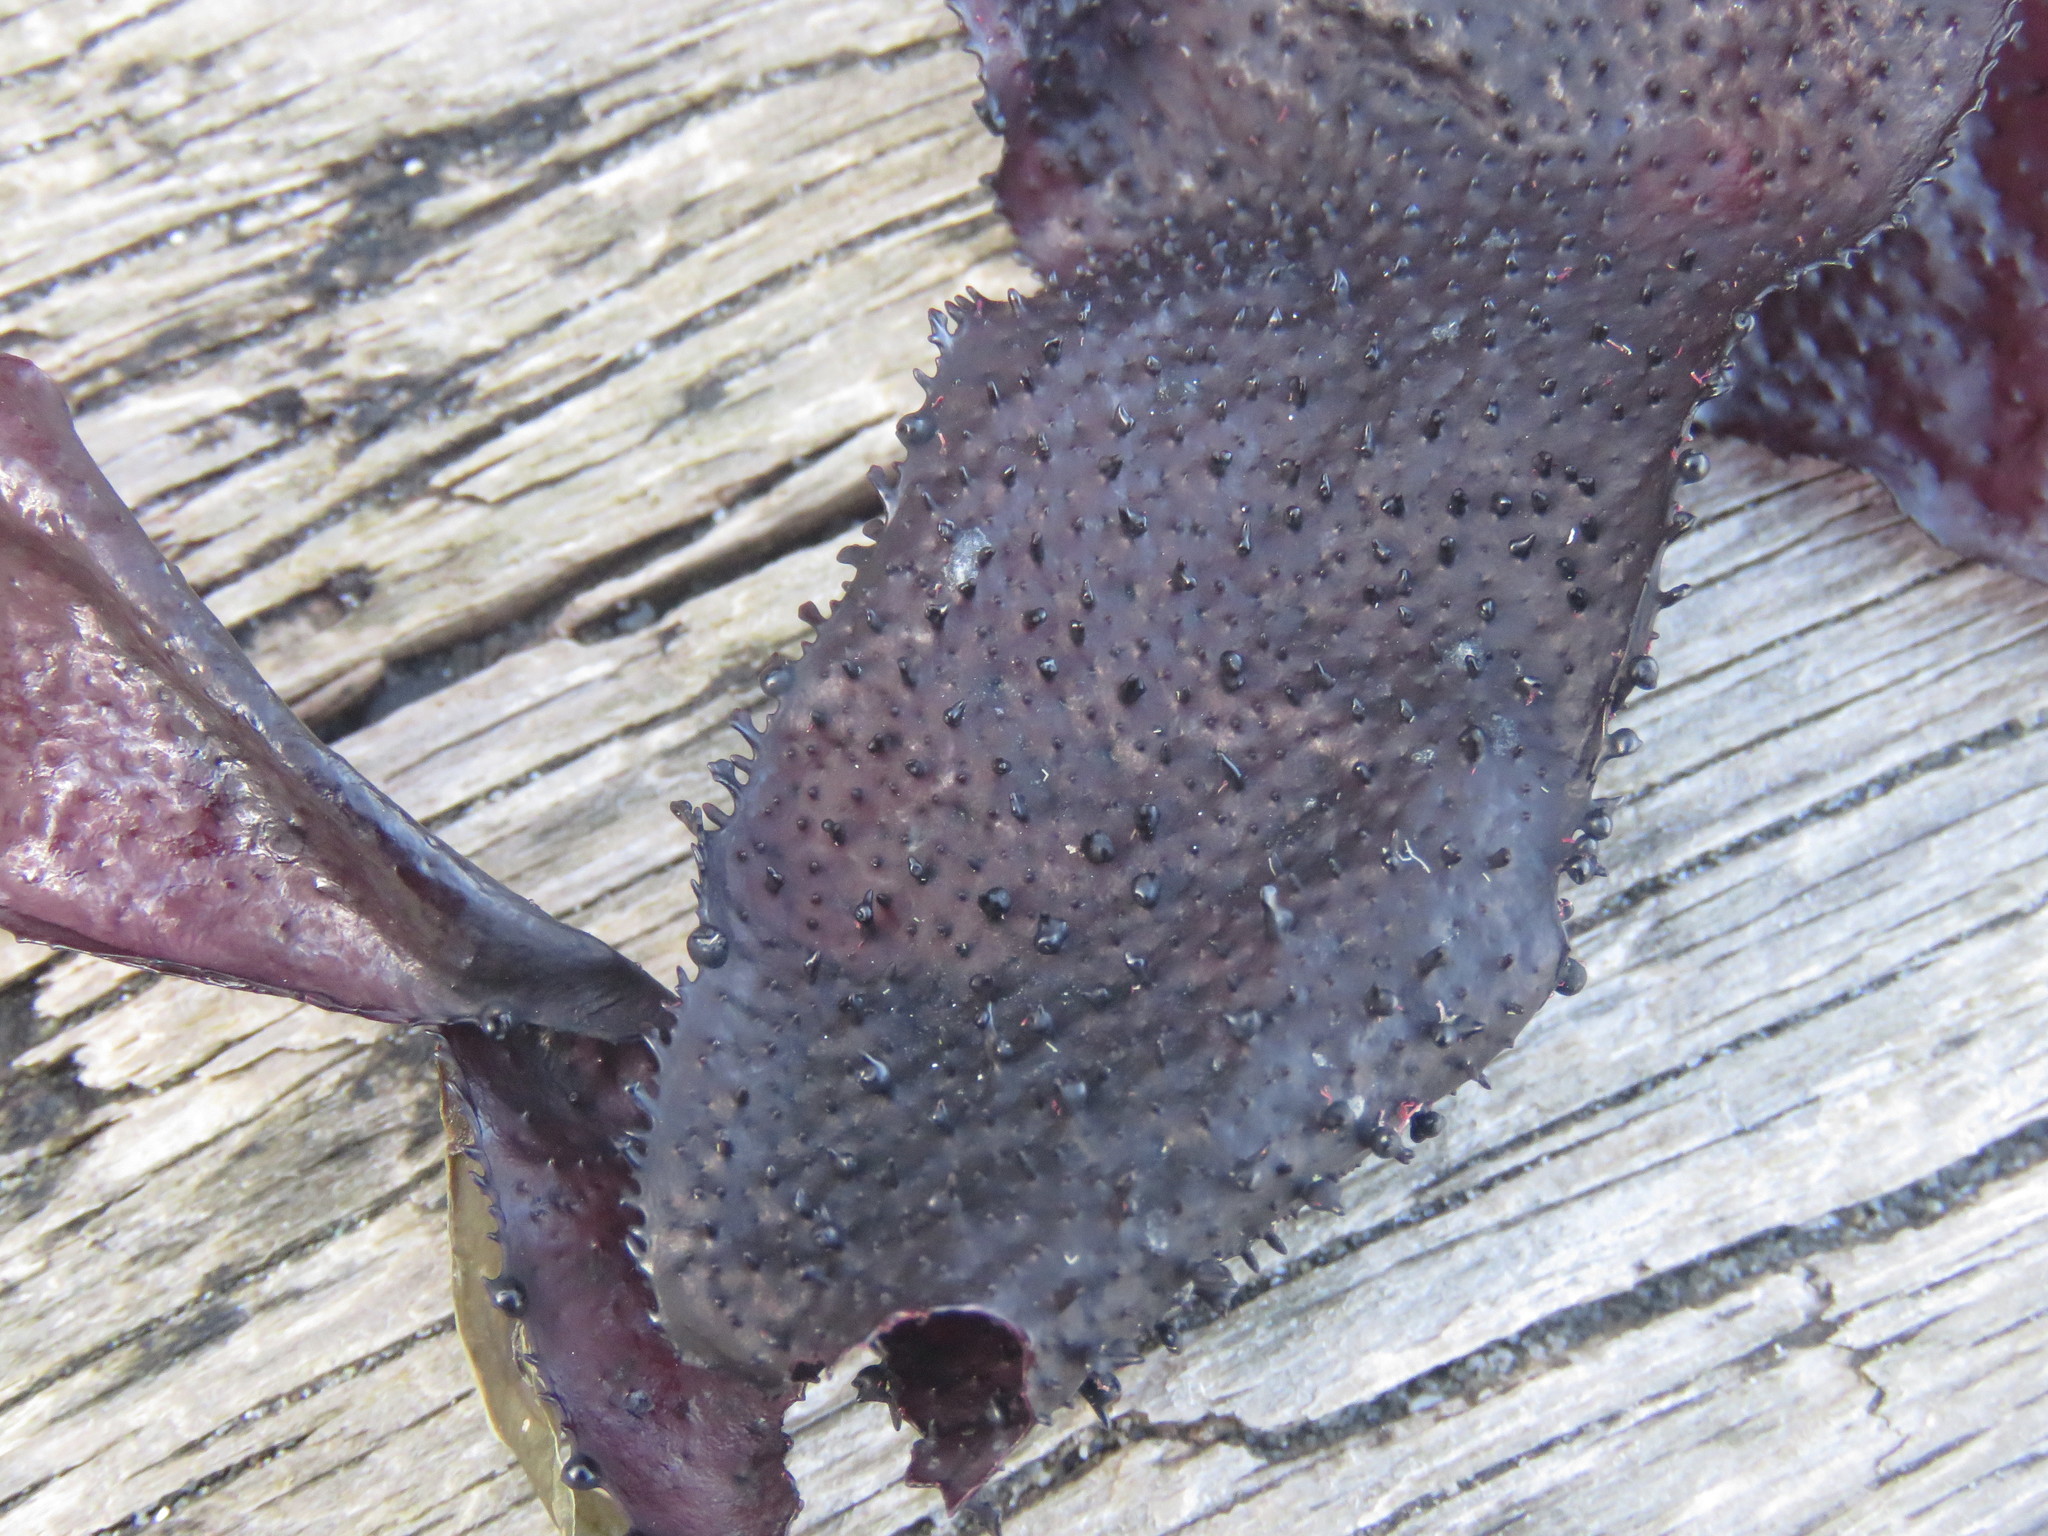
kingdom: Plantae
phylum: Rhodophyta
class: Florideophyceae
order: Gigartinales
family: Gigartinaceae
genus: Chondracanthus
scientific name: Chondracanthus exasperatus
